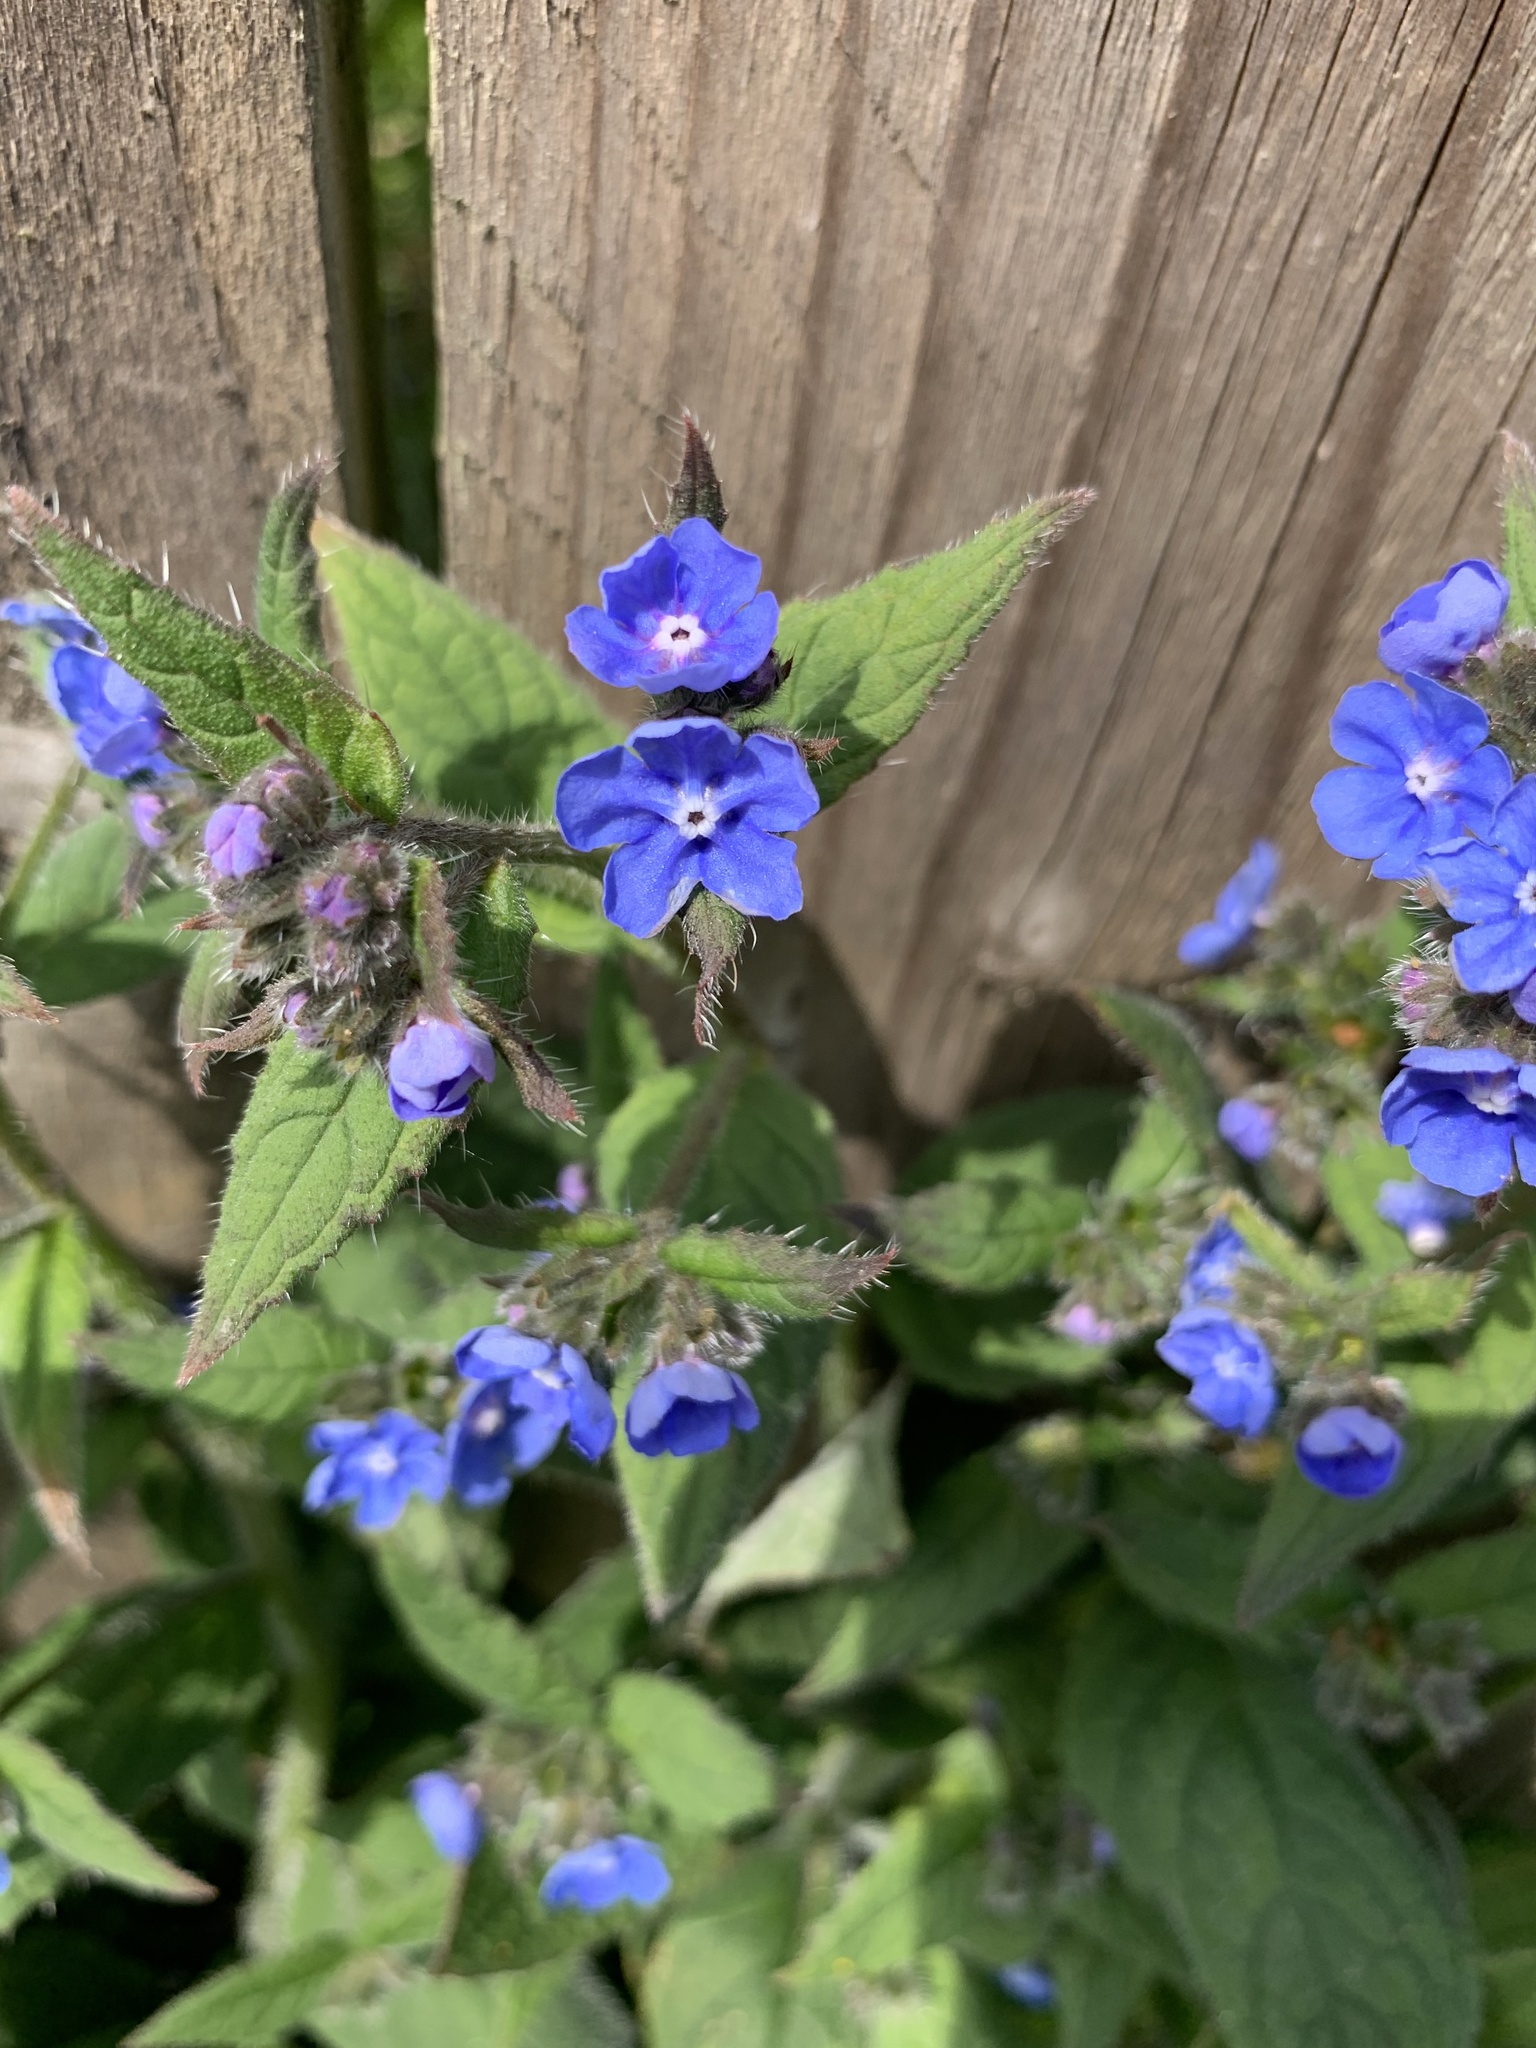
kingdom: Plantae
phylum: Tracheophyta
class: Magnoliopsida
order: Boraginales
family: Boraginaceae
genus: Pentaglottis
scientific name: Pentaglottis sempervirens
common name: Green alkanet
